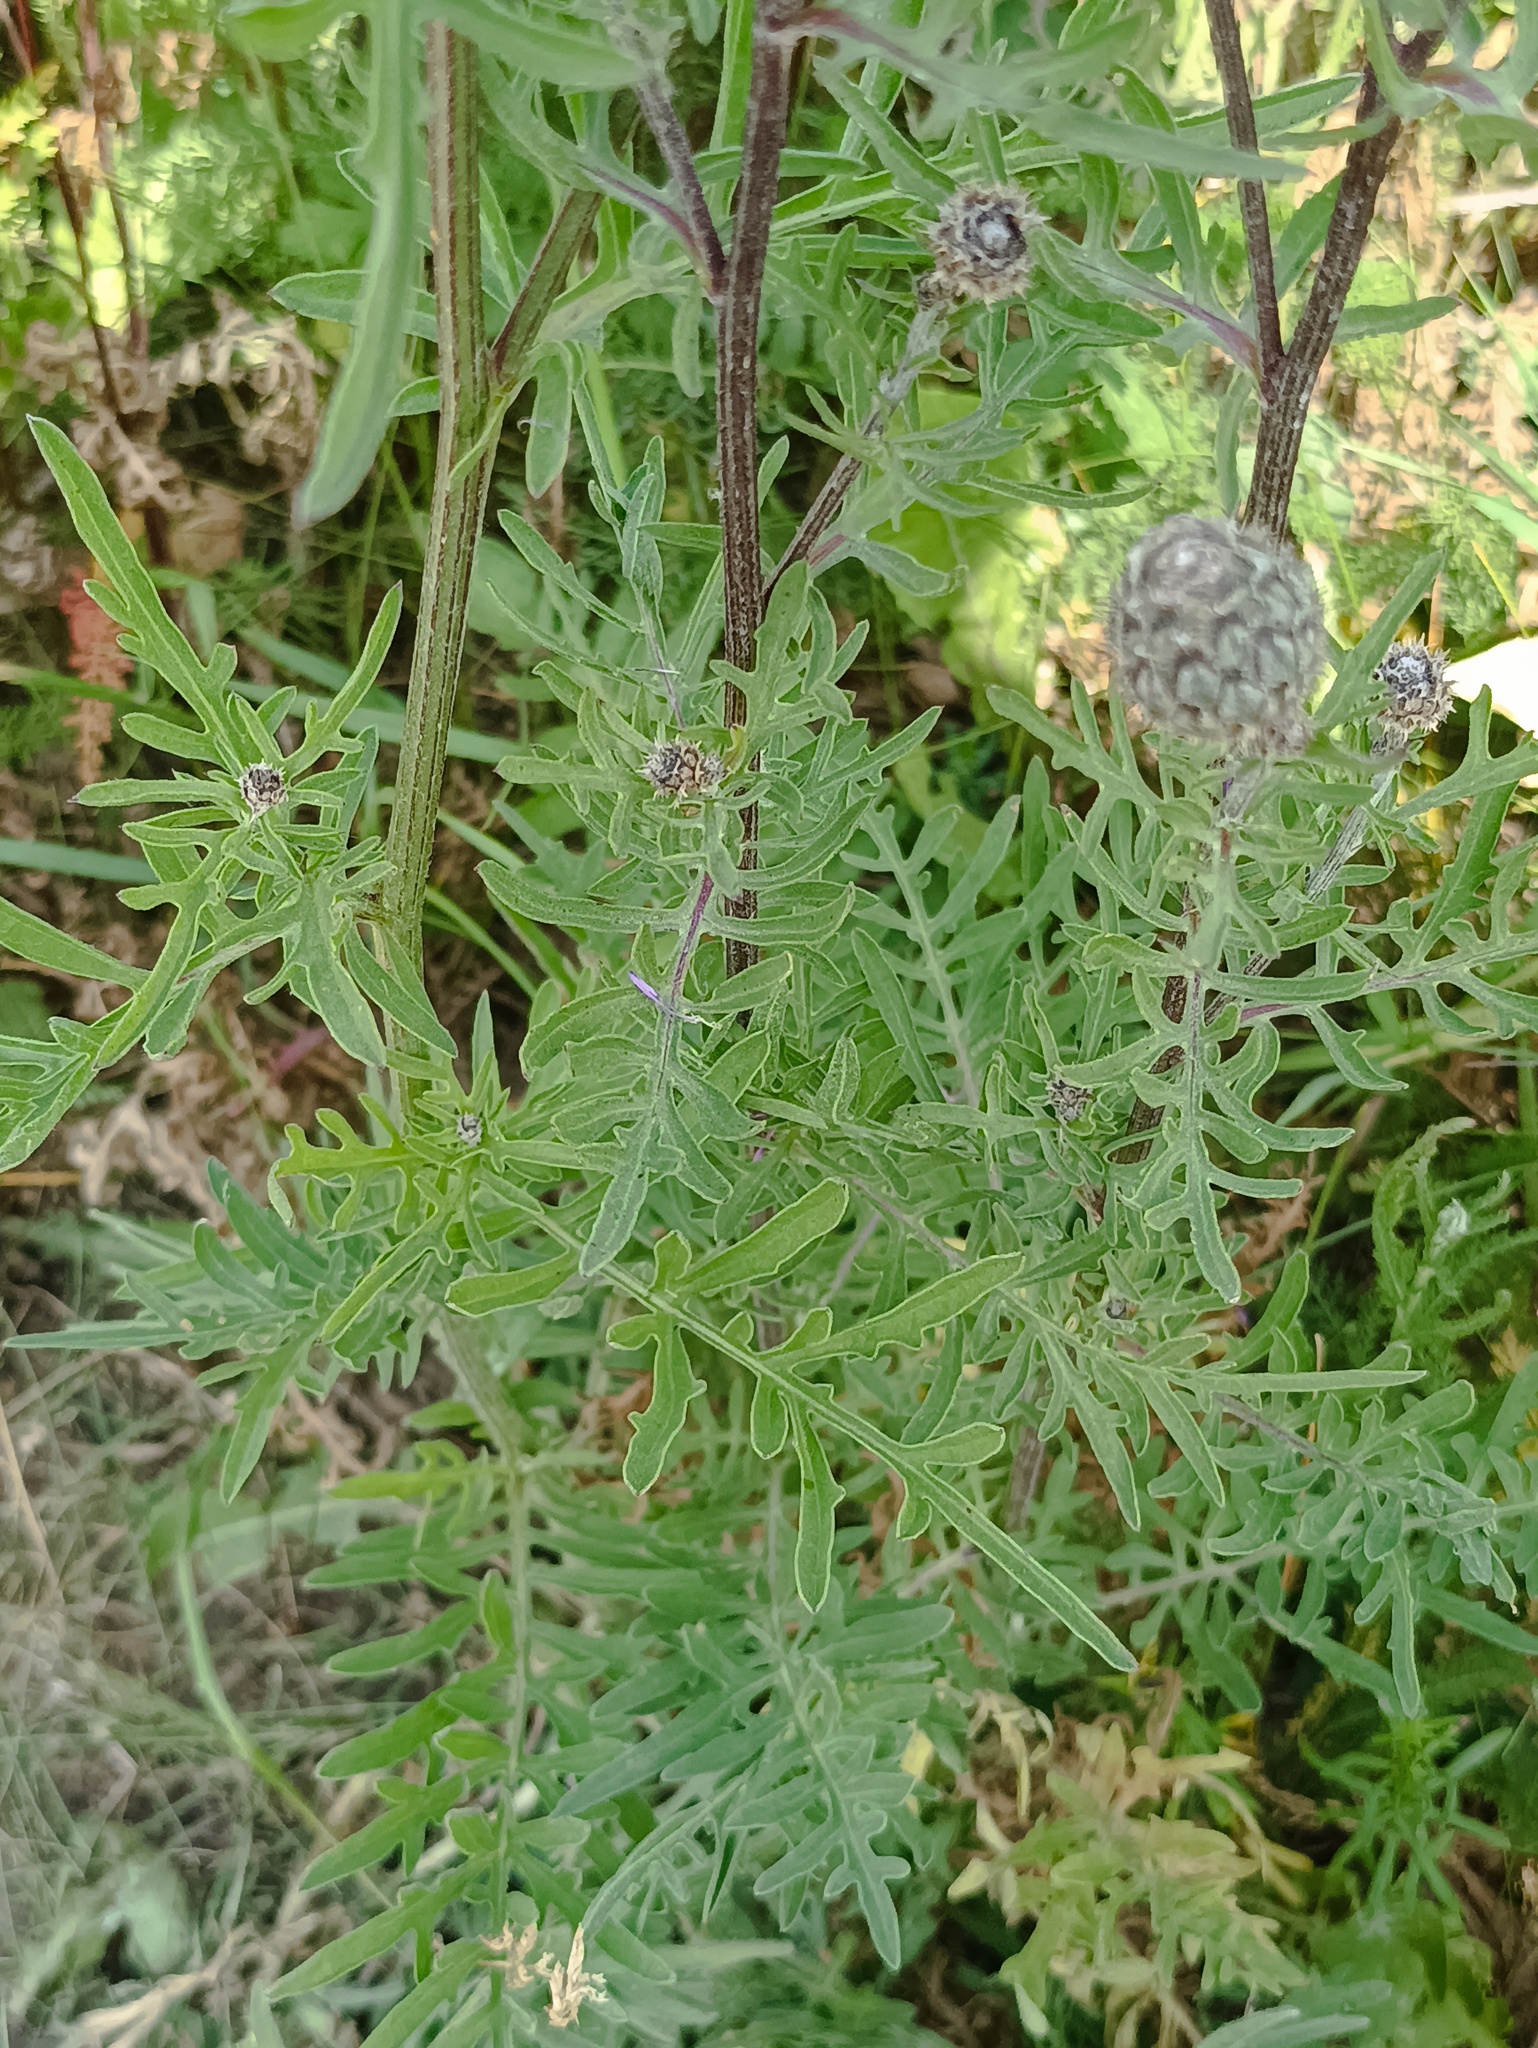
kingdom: Plantae
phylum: Tracheophyta
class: Magnoliopsida
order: Asterales
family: Asteraceae
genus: Centaurea
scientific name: Centaurea scabiosa
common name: Greater knapweed
